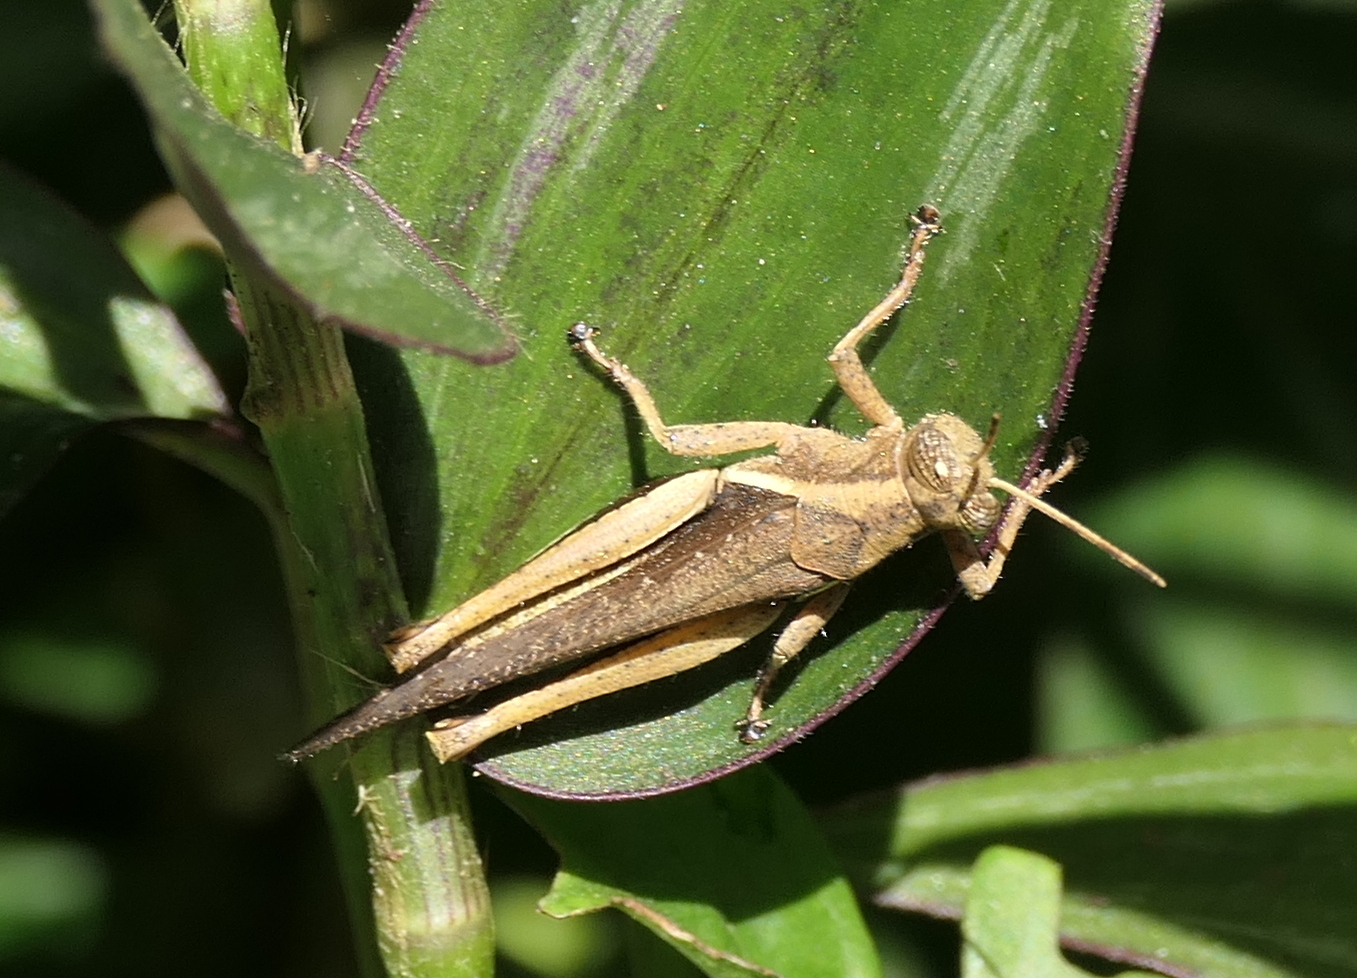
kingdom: Animalia
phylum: Arthropoda
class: Insecta
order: Orthoptera
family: Acrididae
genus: Abracris
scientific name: Abracris flavolineata
